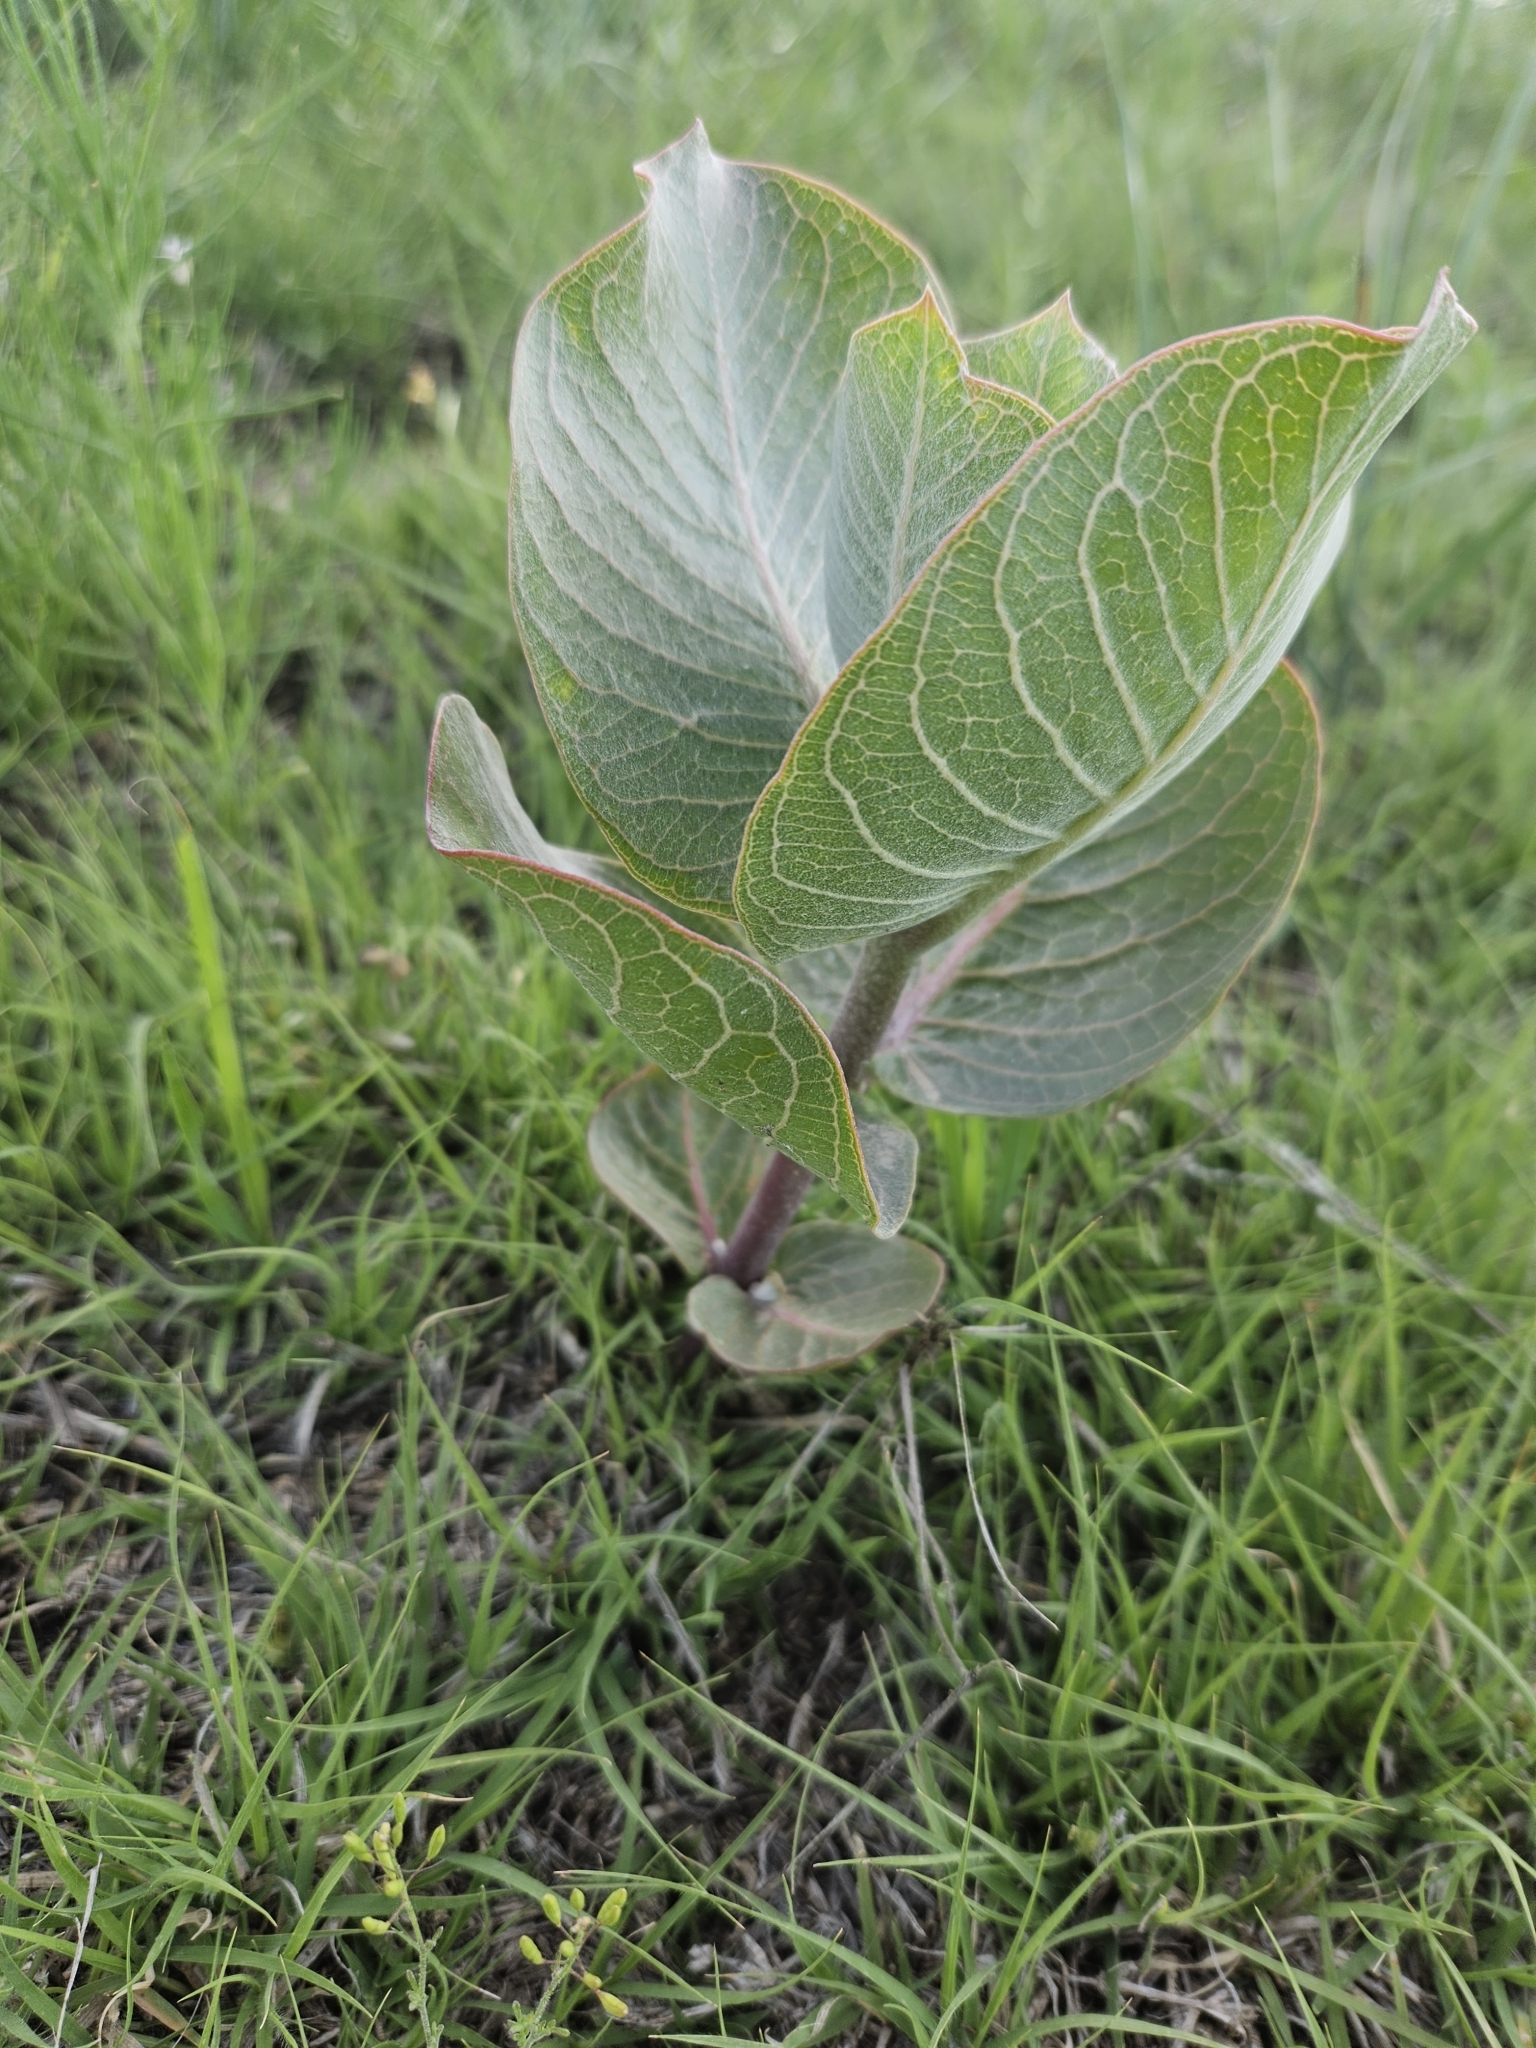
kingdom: Plantae
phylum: Tracheophyta
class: Magnoliopsida
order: Gentianales
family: Apocynaceae
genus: Asclepias
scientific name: Asclepias latifolia
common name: Broadleaf milkweed
